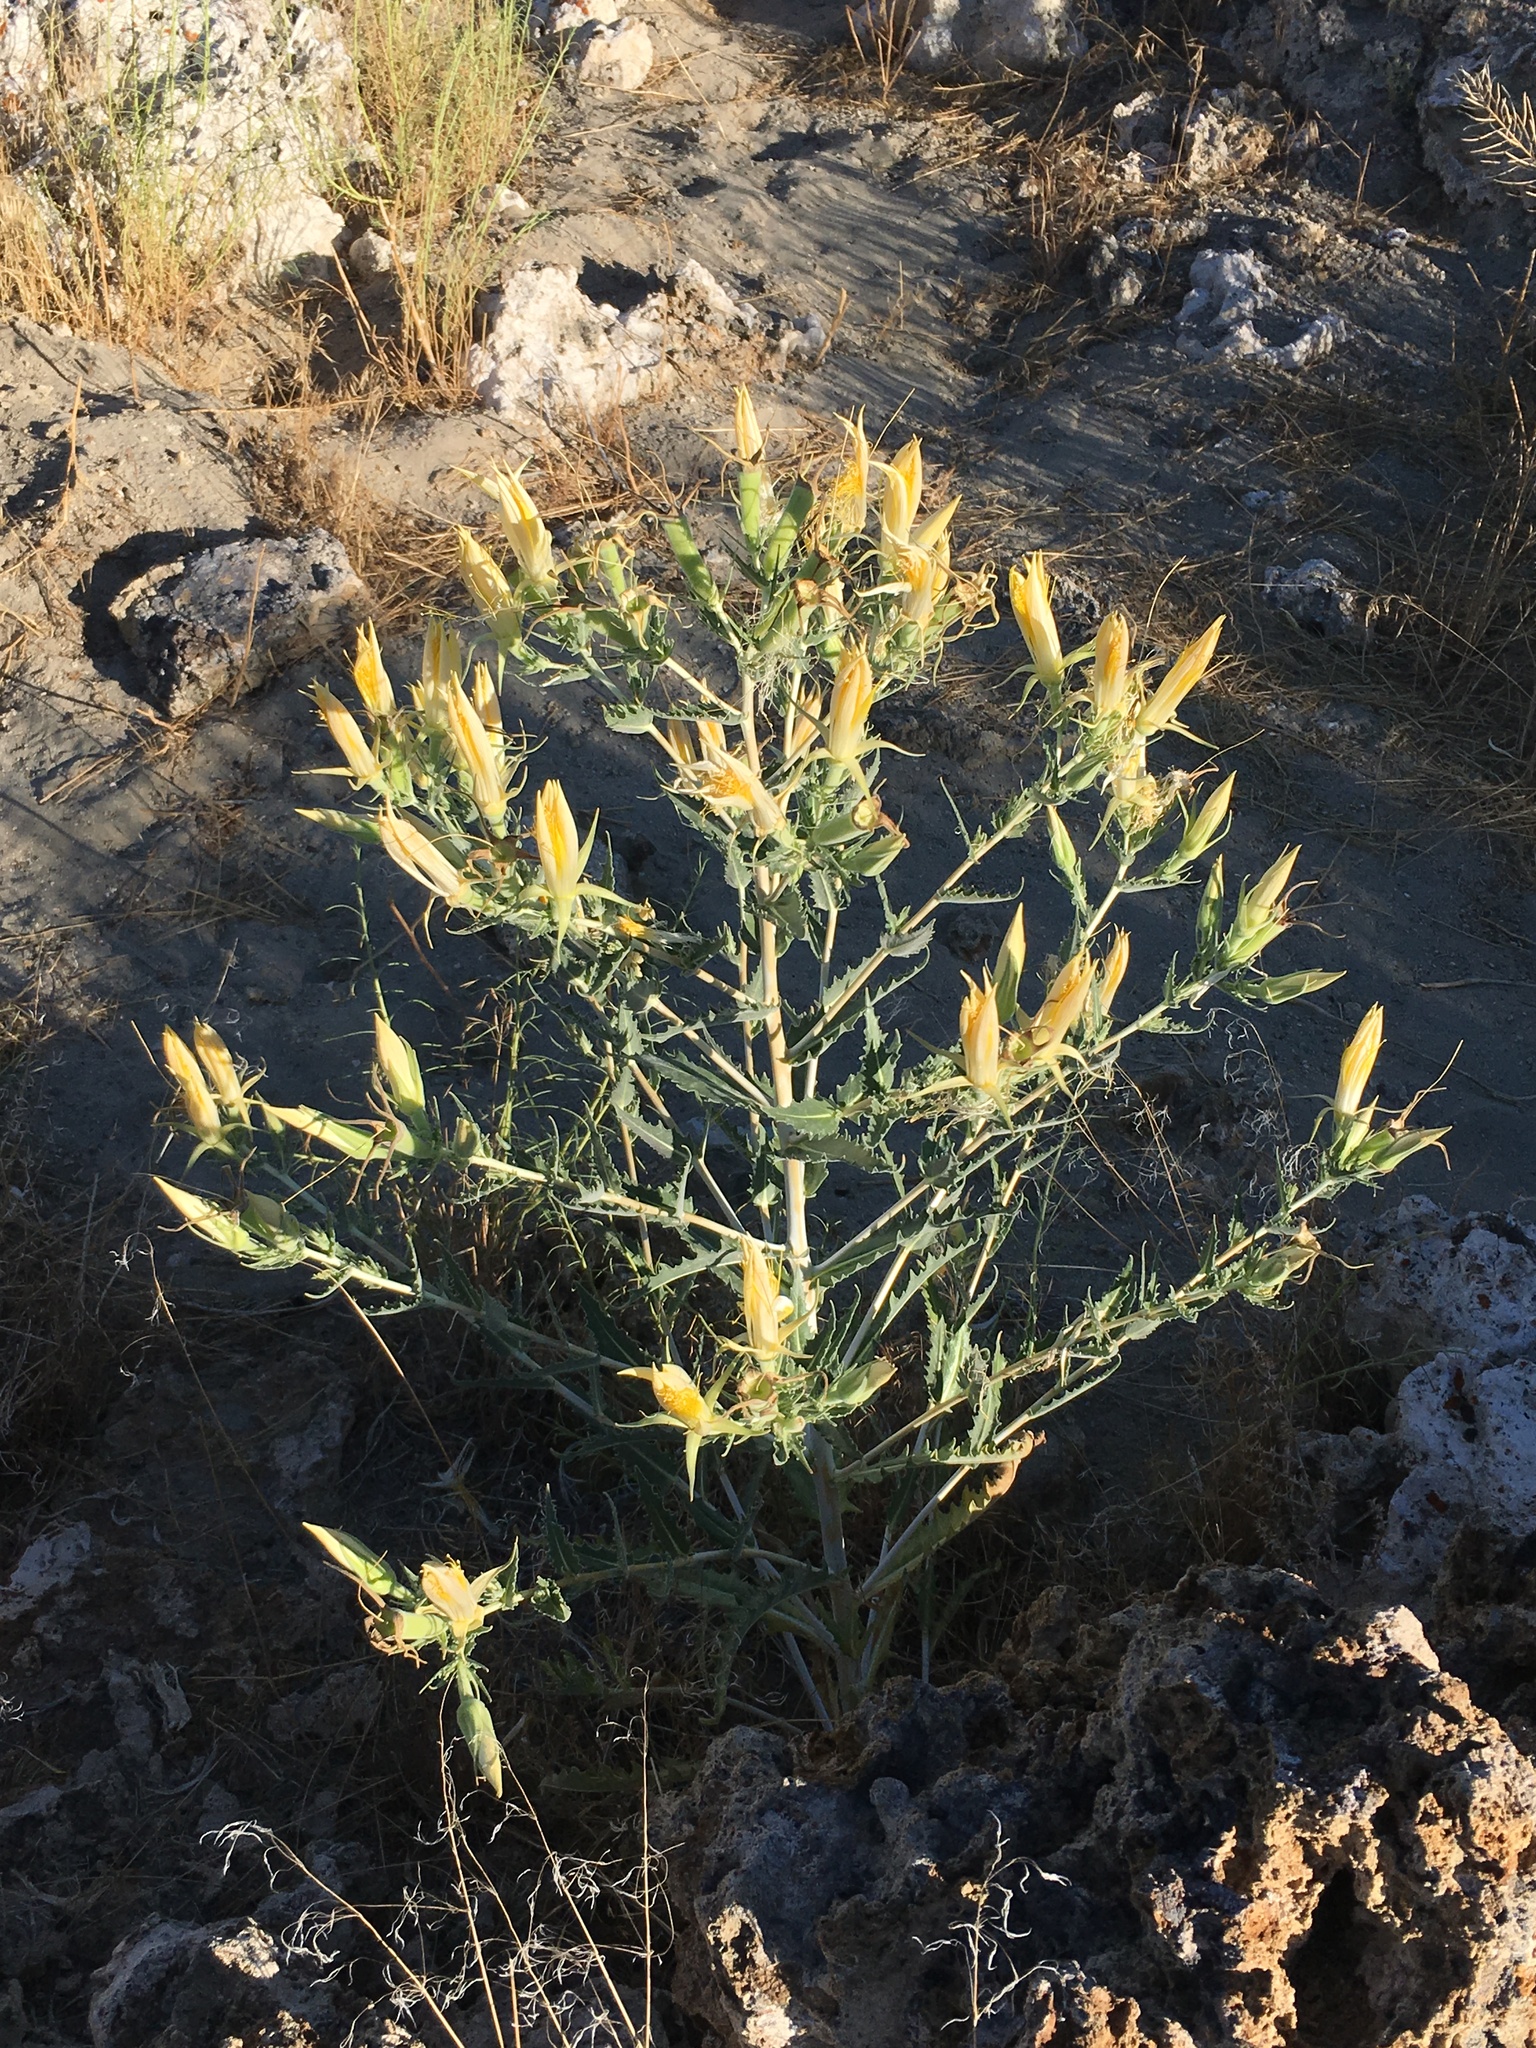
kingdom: Plantae
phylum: Tracheophyta
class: Magnoliopsida
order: Cornales
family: Loasaceae
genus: Mentzelia
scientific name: Mentzelia laevicaulis
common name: Smooth-stem blazingstar
